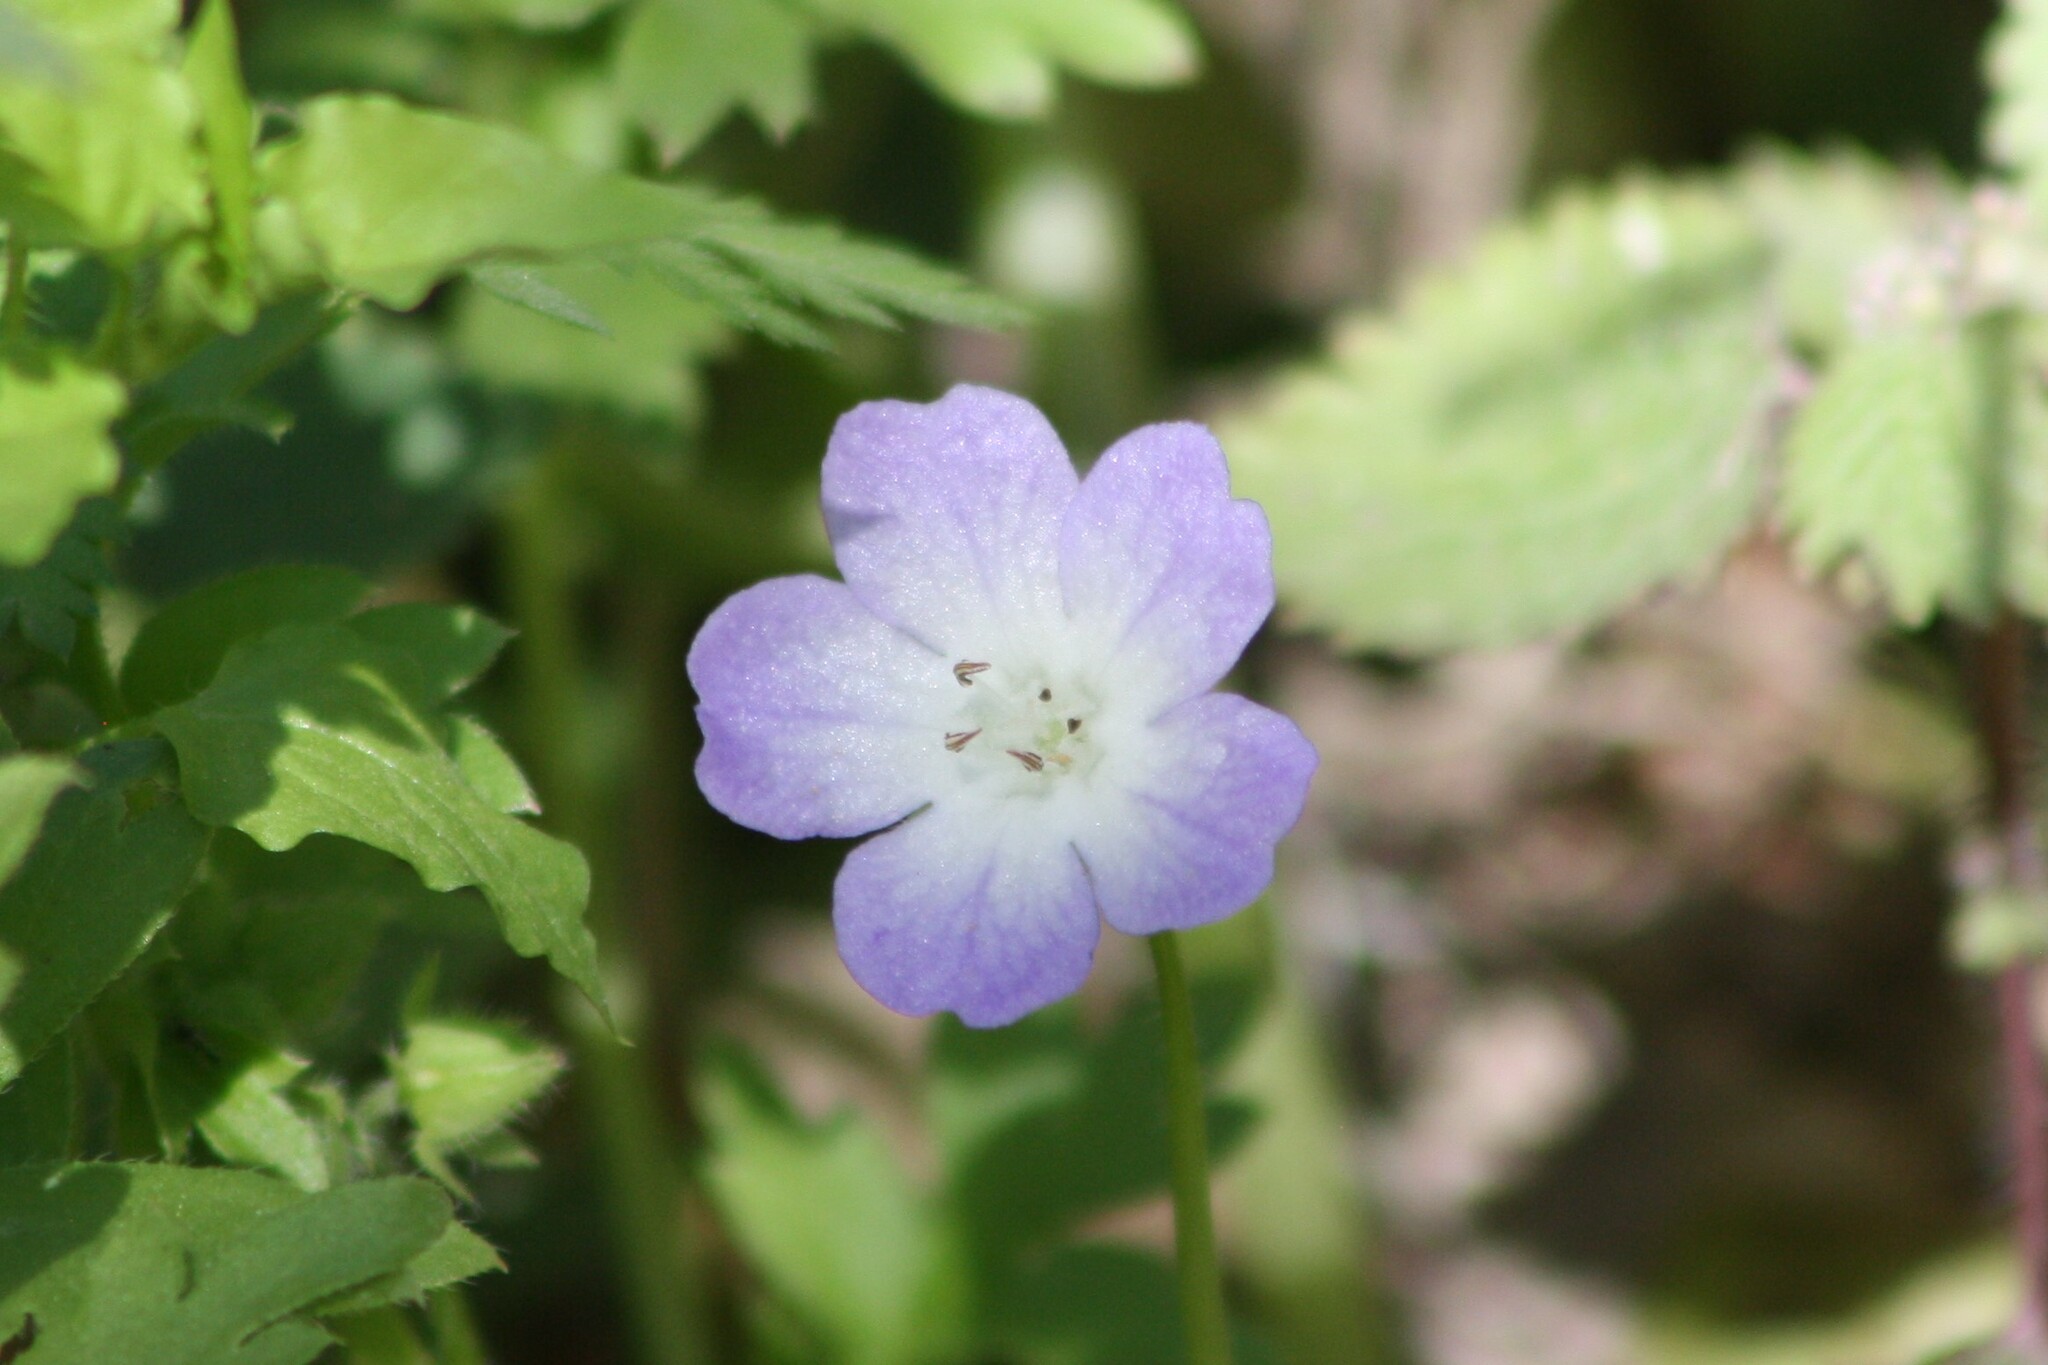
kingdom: Plantae
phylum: Tracheophyta
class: Magnoliopsida
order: Boraginales
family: Hydrophyllaceae
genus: Nemophila
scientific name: Nemophila phacelioides
